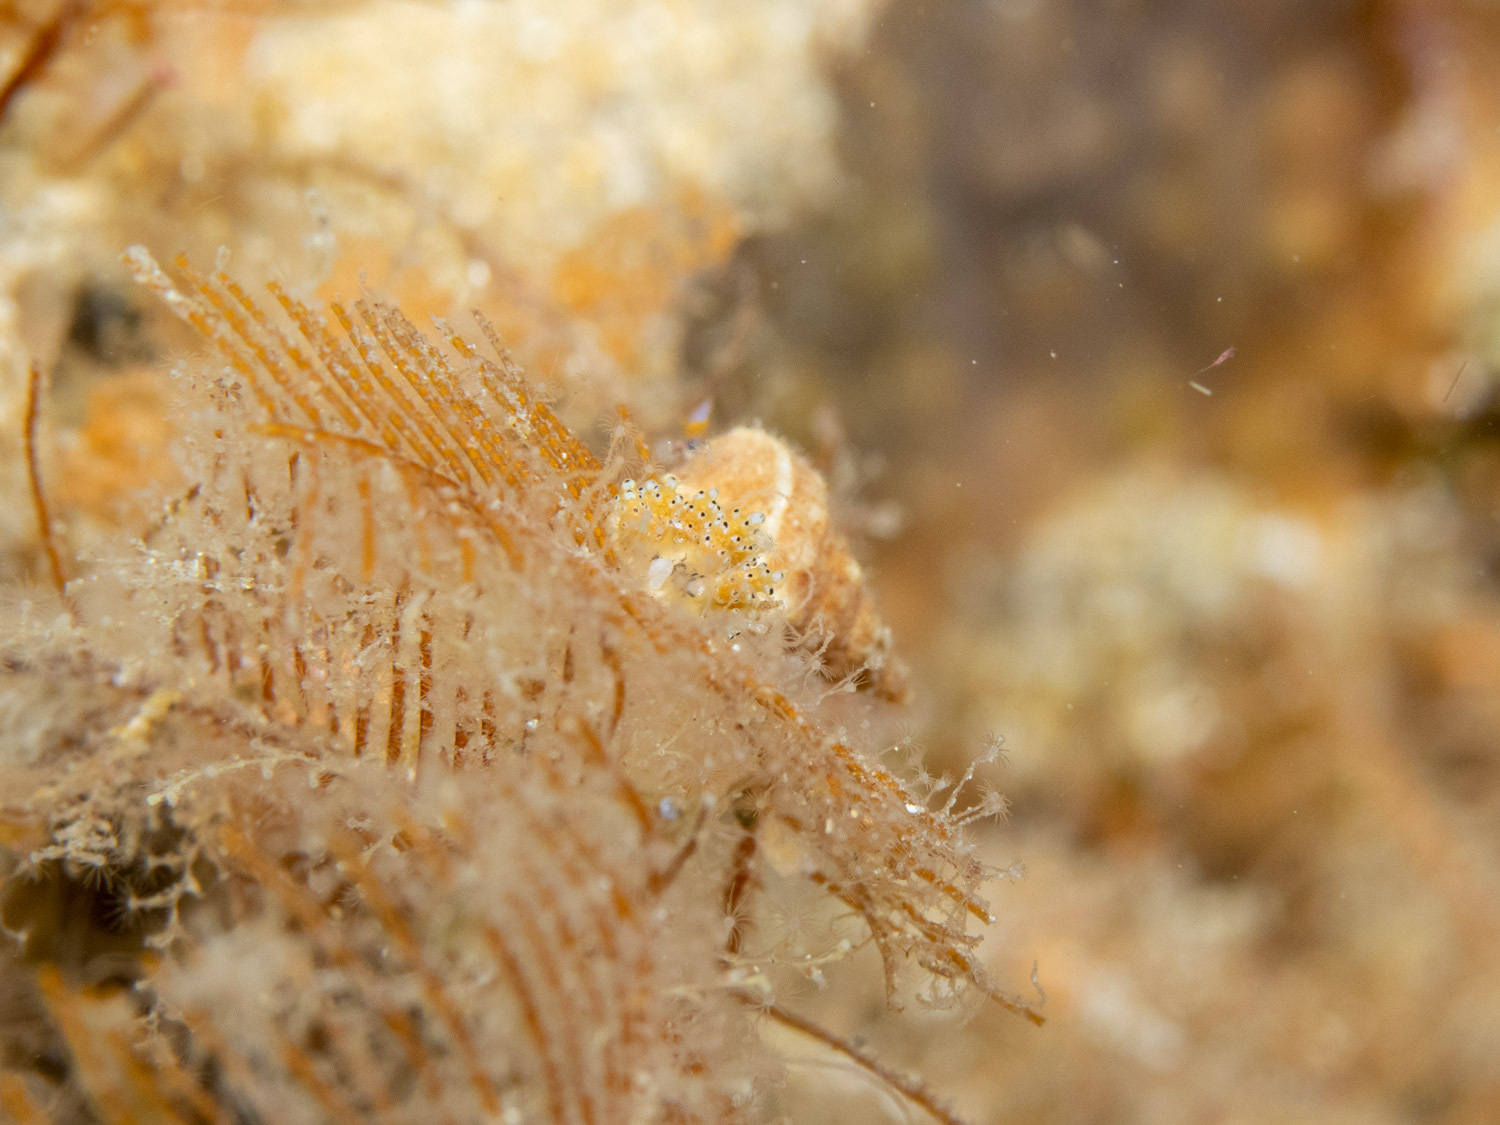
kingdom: Animalia
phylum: Mollusca
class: Gastropoda
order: Nudibranchia
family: Dotidae
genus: Doto
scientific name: Doto ostenta
